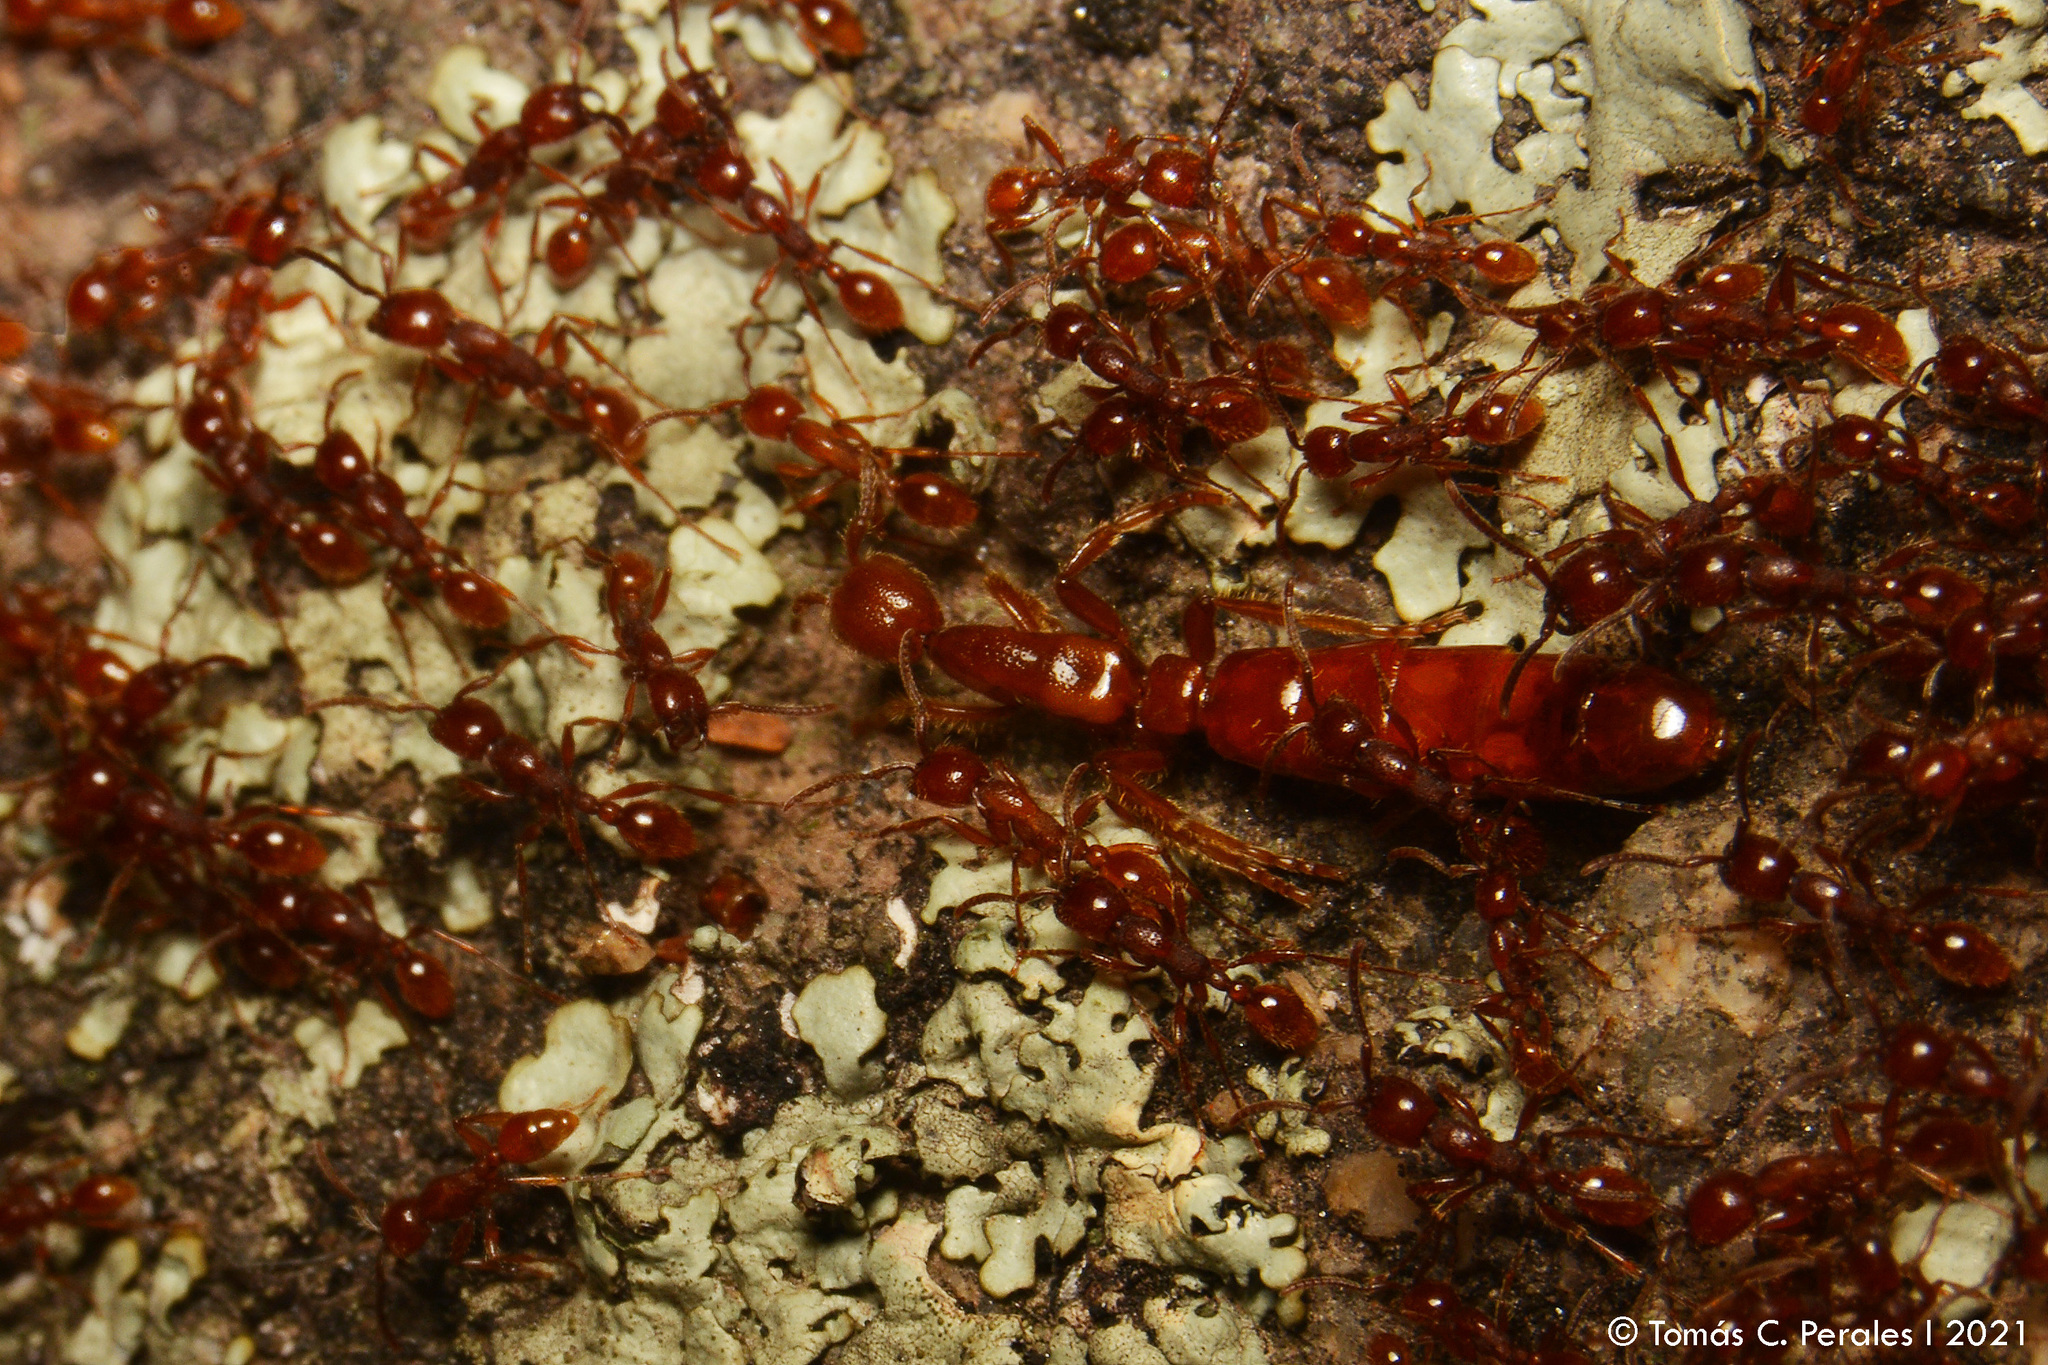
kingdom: Animalia
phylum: Arthropoda
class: Insecta
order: Hymenoptera
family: Formicidae
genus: Neivamyrmex
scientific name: Neivamyrmex
